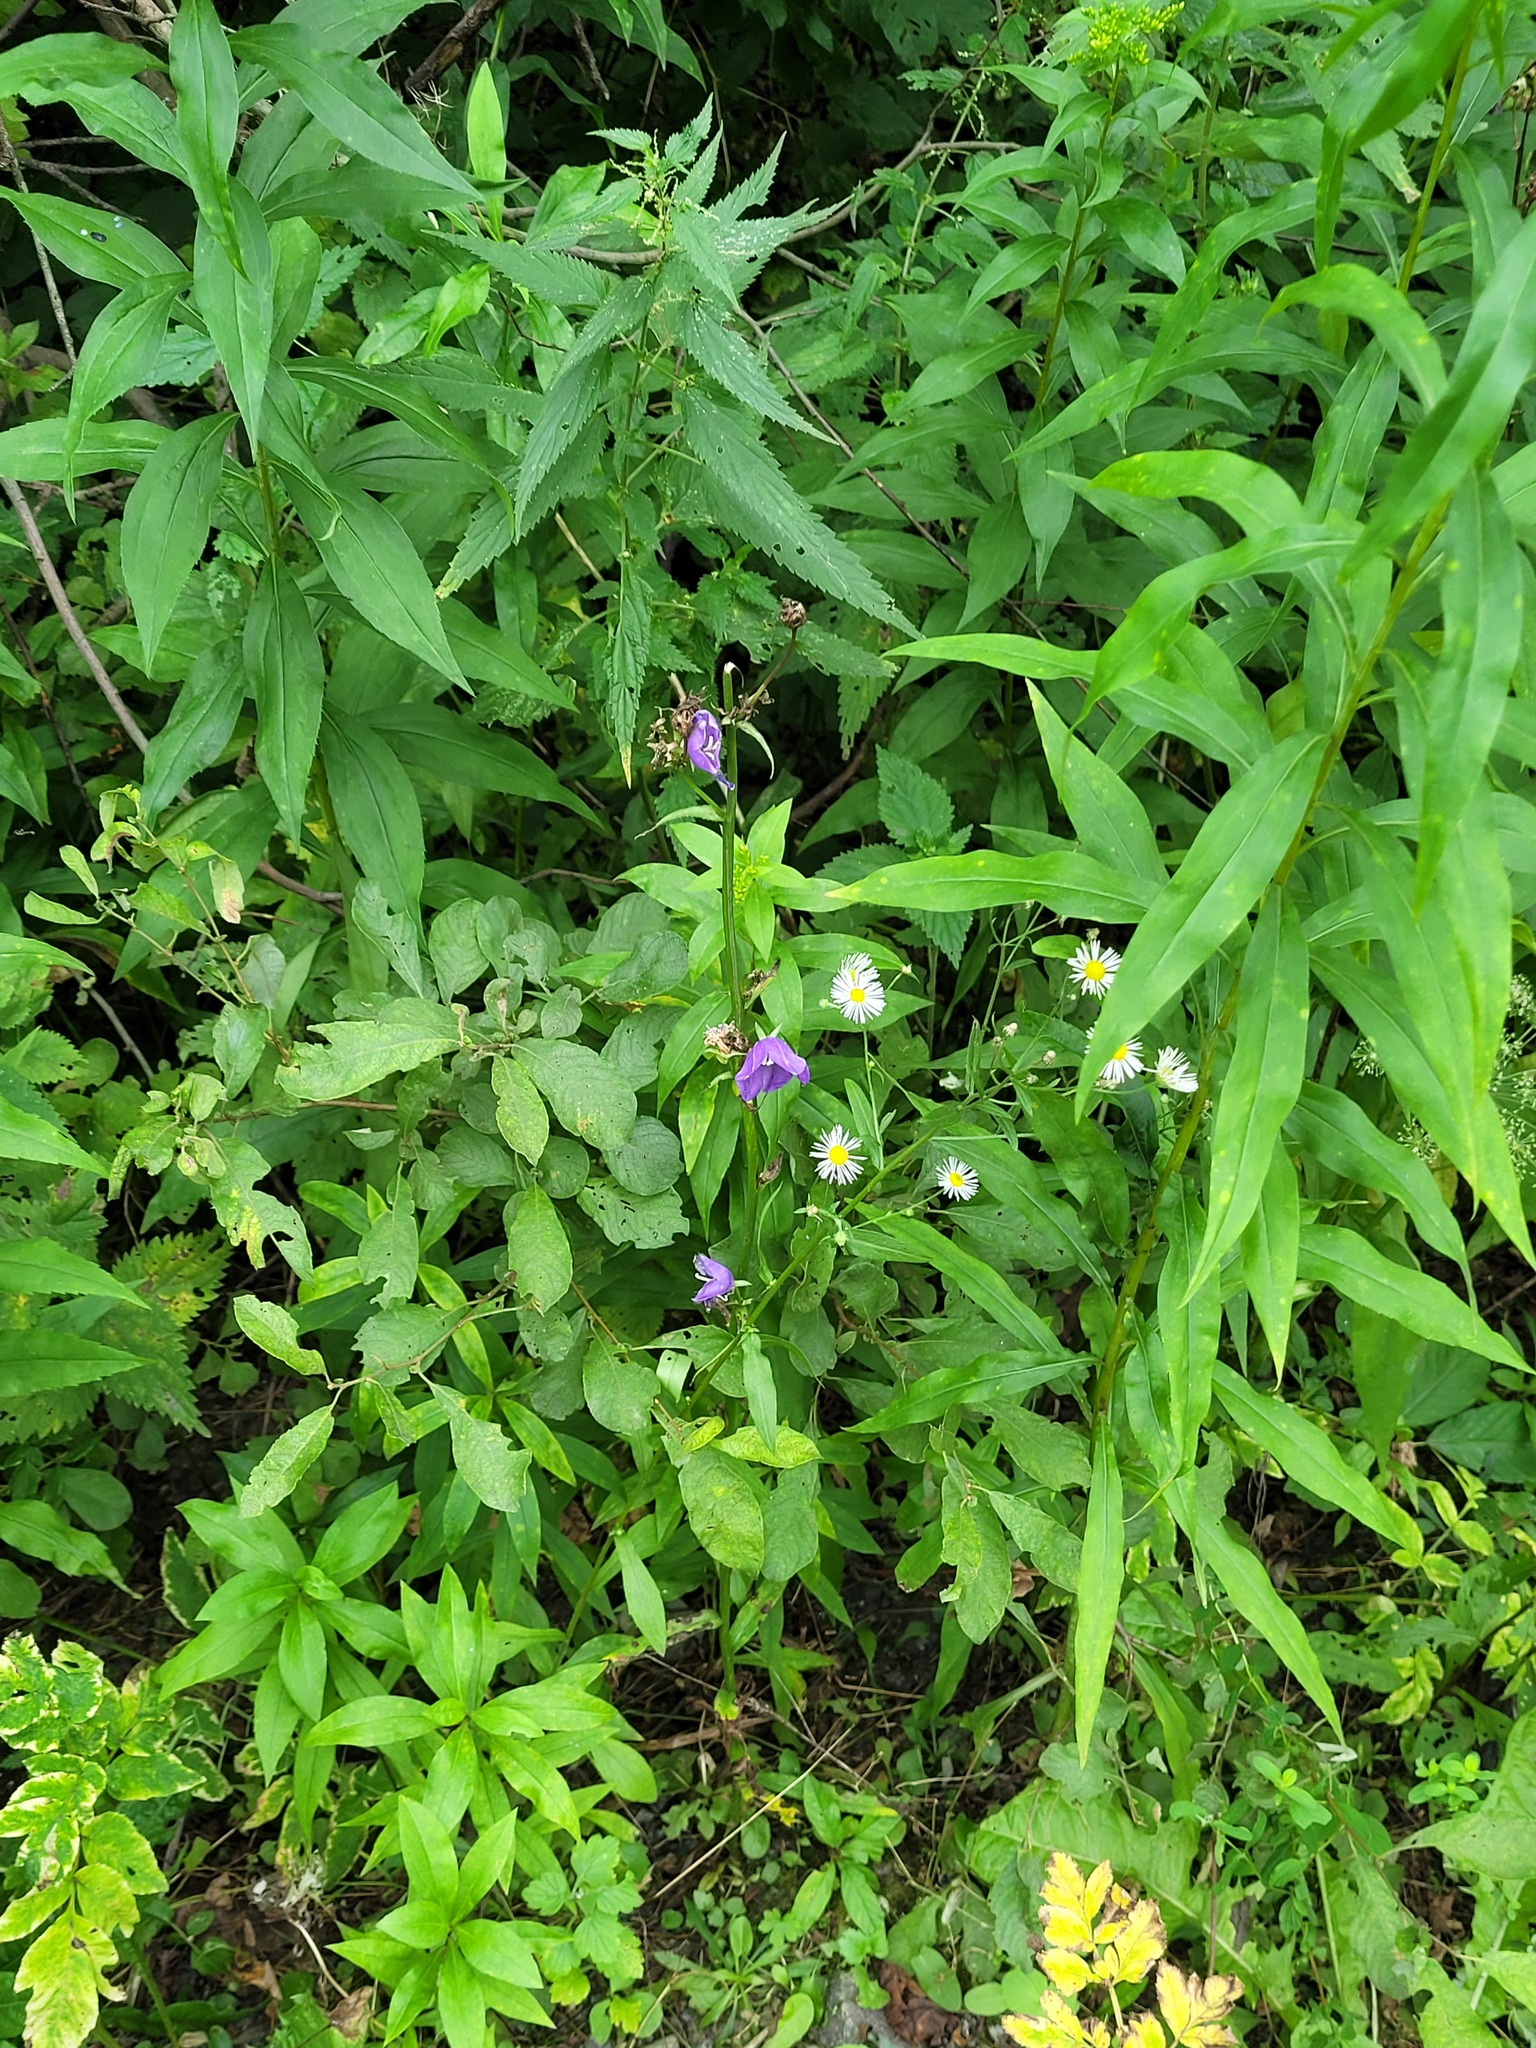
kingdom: Plantae
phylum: Tracheophyta
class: Magnoliopsida
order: Asterales
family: Campanulaceae
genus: Campanula
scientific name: Campanula persicifolia
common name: Peach-leaved bellflower
